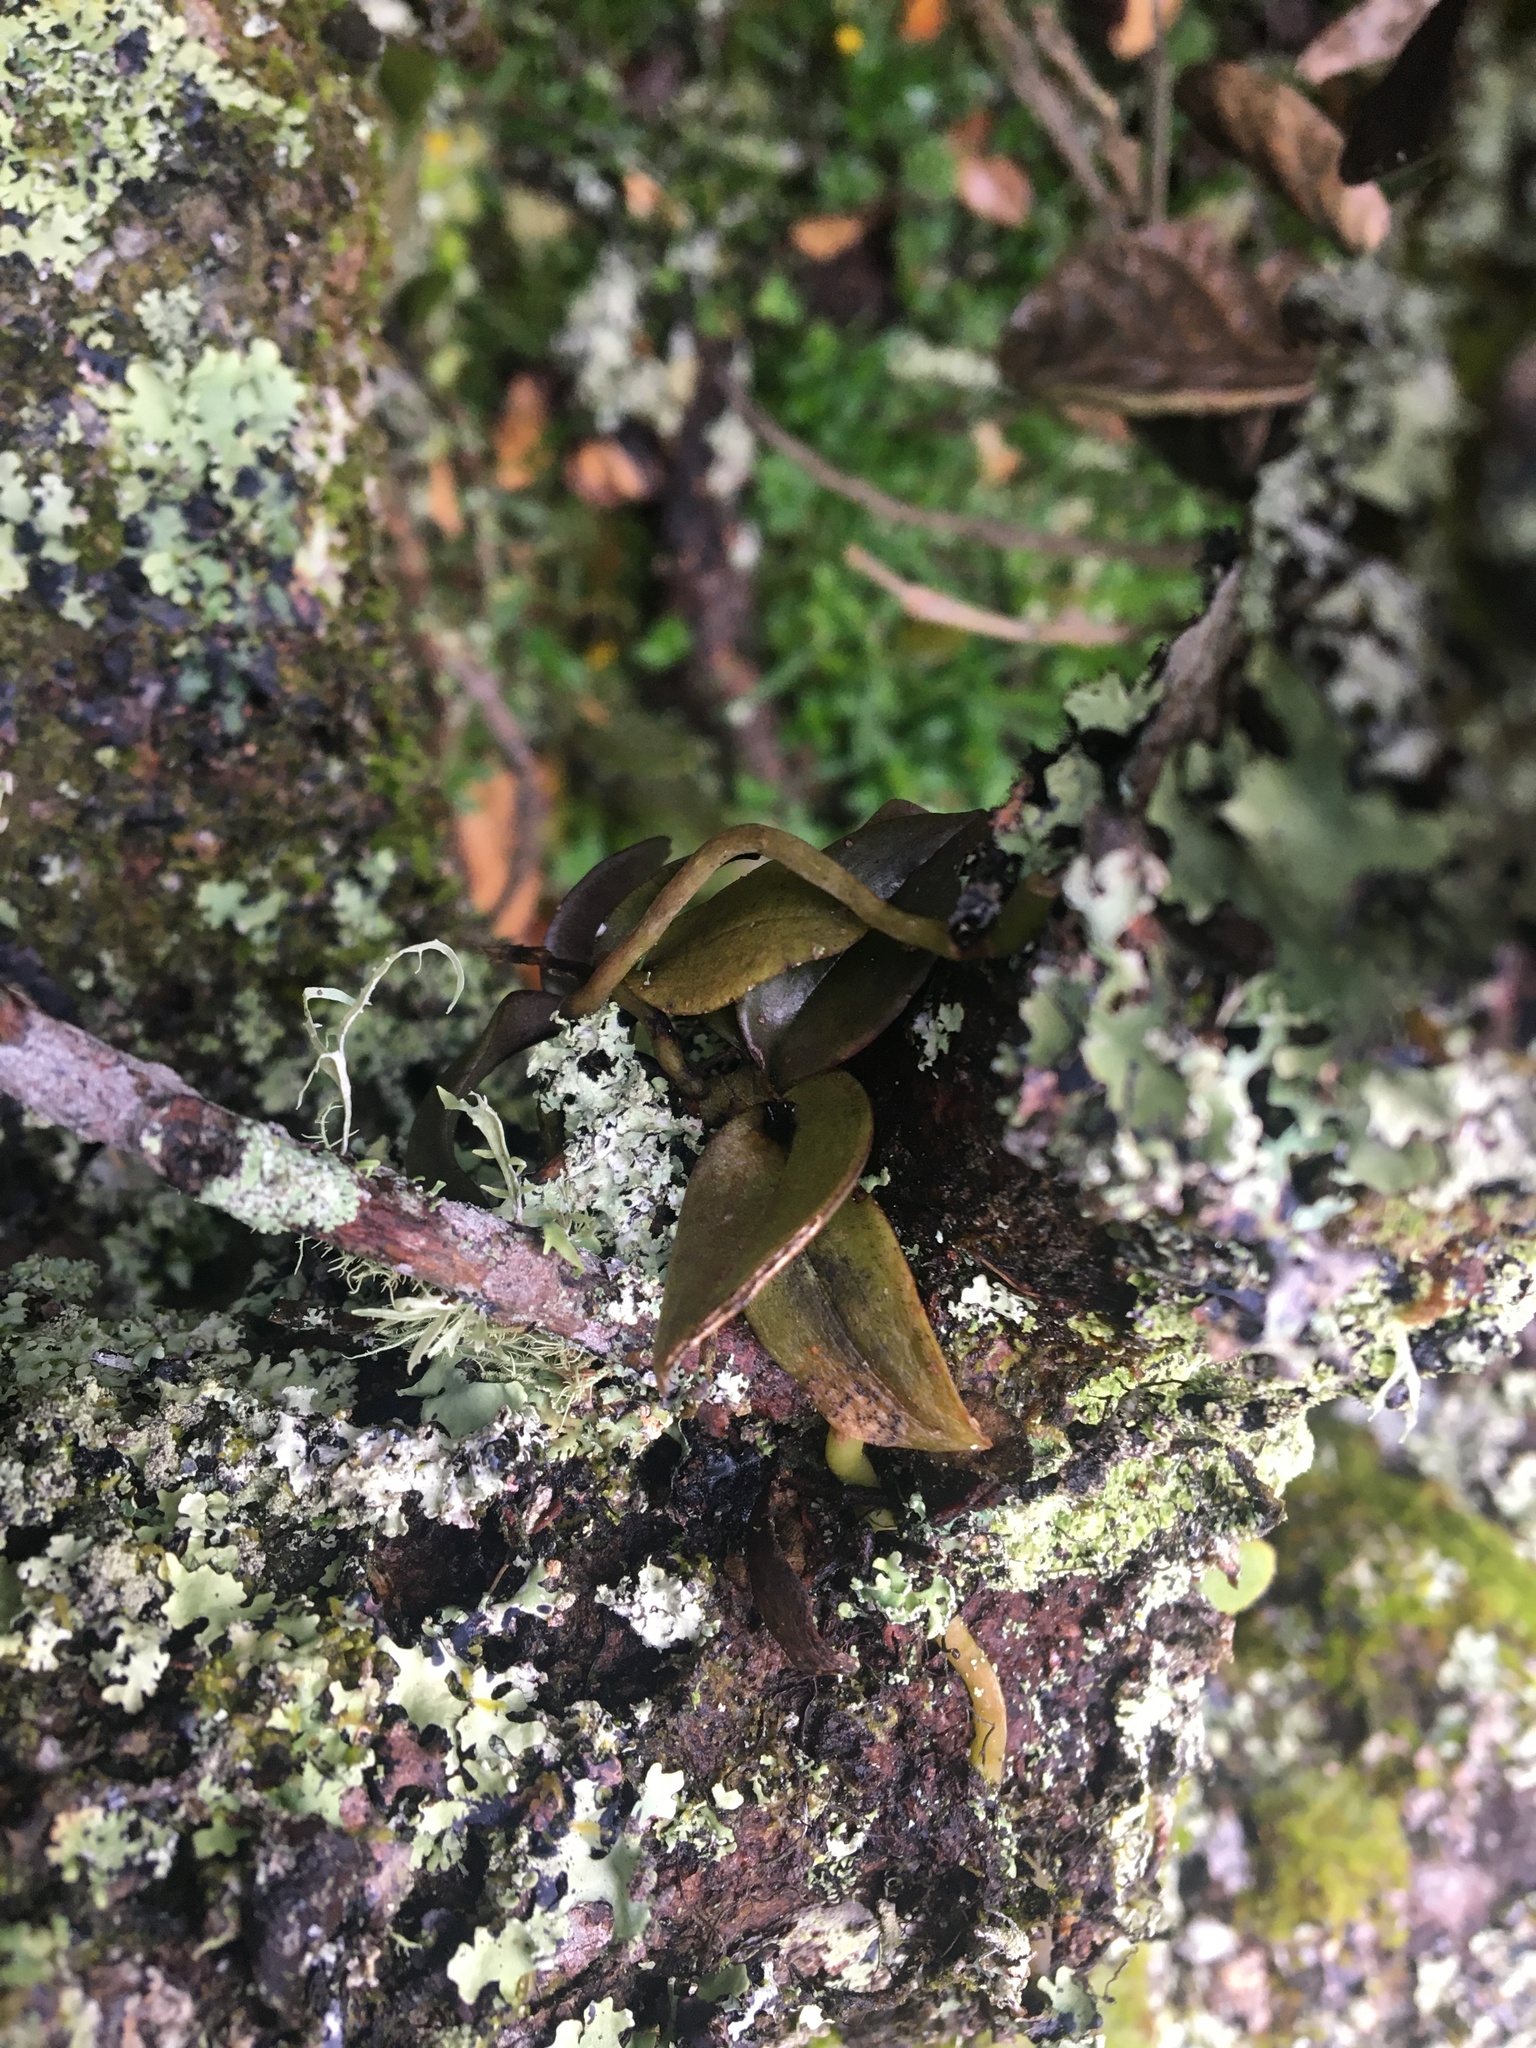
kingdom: Plantae
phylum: Tracheophyta
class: Liliopsida
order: Asparagales
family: Orchidaceae
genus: Drymoanthus
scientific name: Drymoanthus adversus
